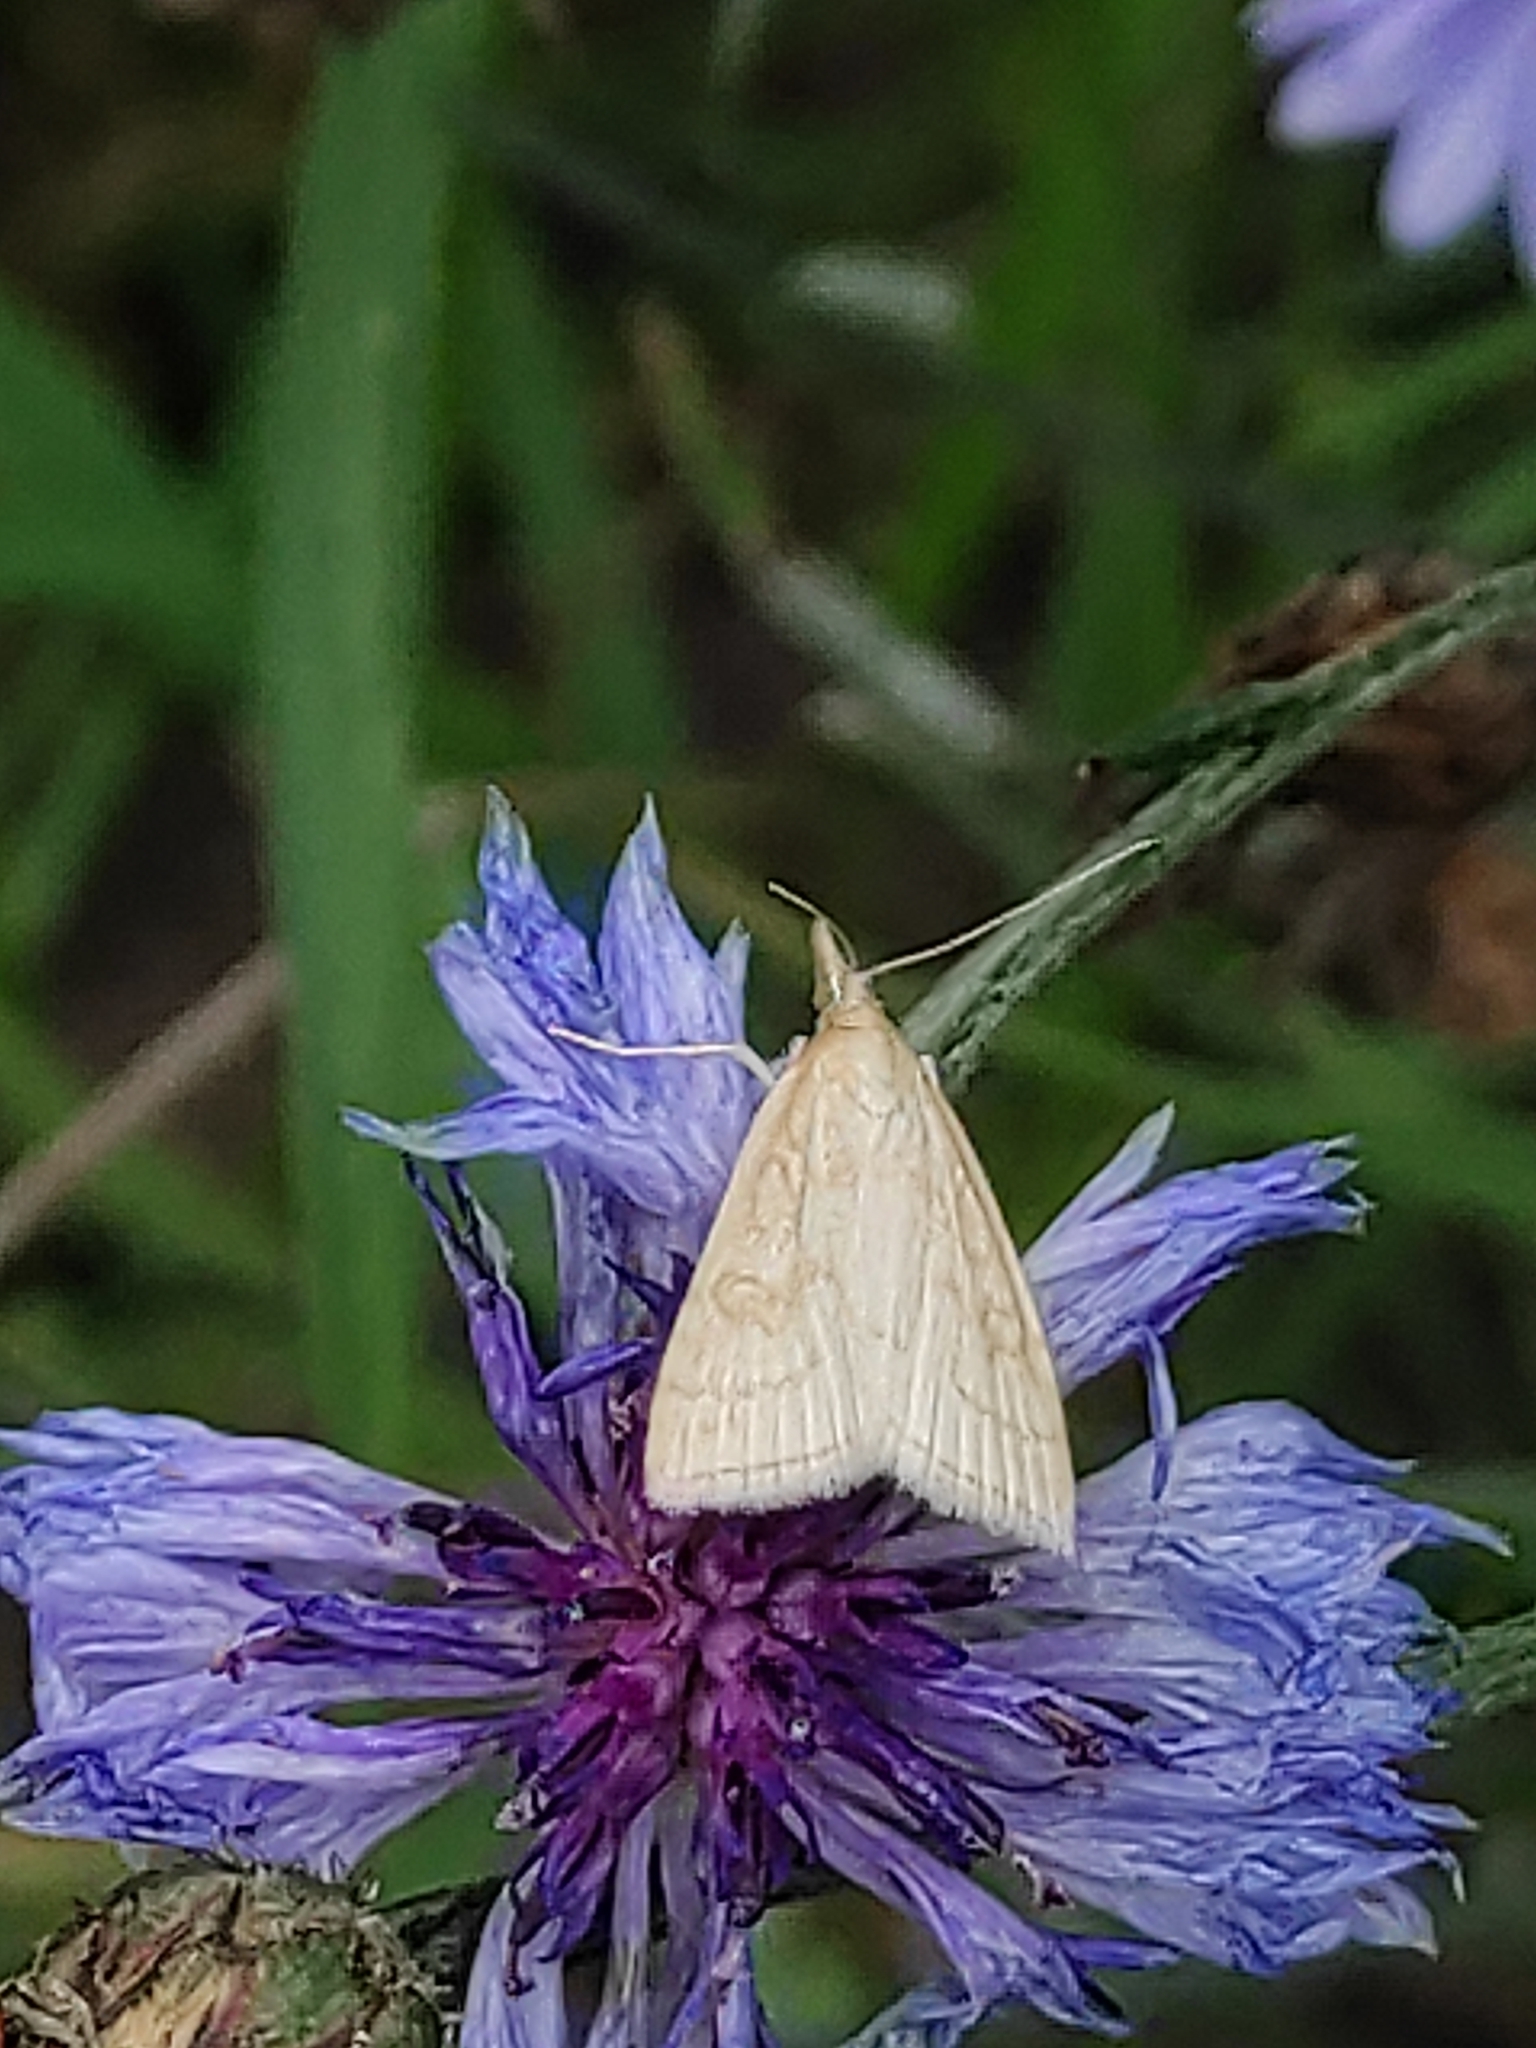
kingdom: Animalia
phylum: Arthropoda
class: Insecta
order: Lepidoptera
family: Crambidae
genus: Udea
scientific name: Udea lutealis
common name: Pale straw pearl
